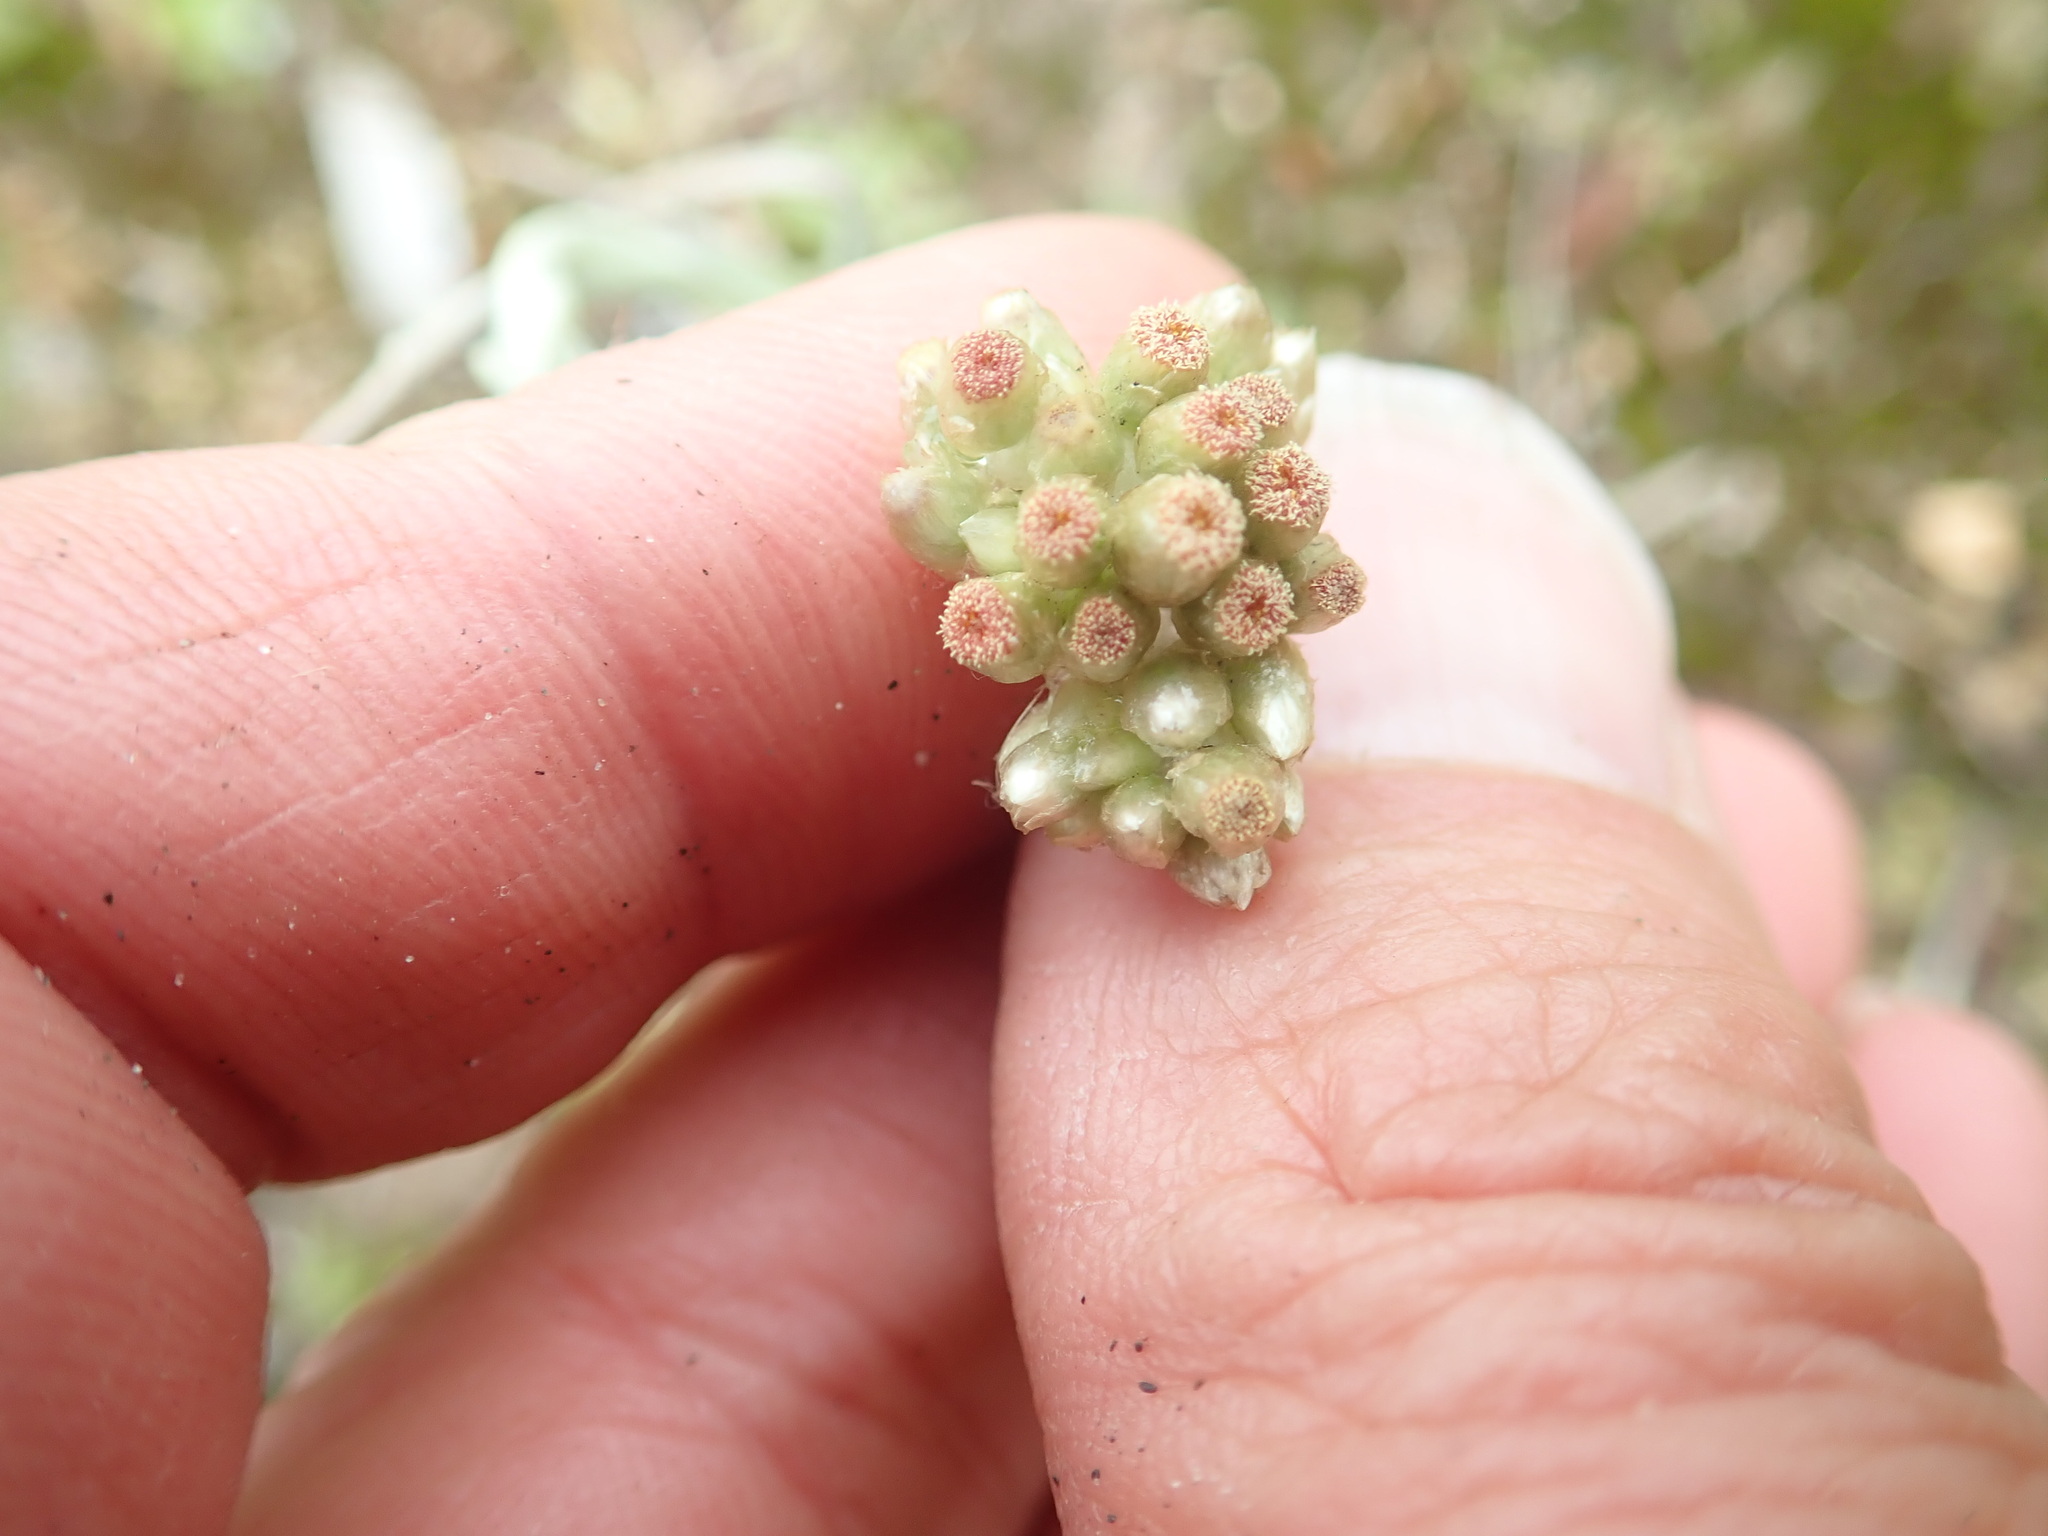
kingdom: Plantae
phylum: Tracheophyta
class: Magnoliopsida
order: Asterales
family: Asteraceae
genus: Helichrysum
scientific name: Helichrysum luteoalbum
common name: Daisy
